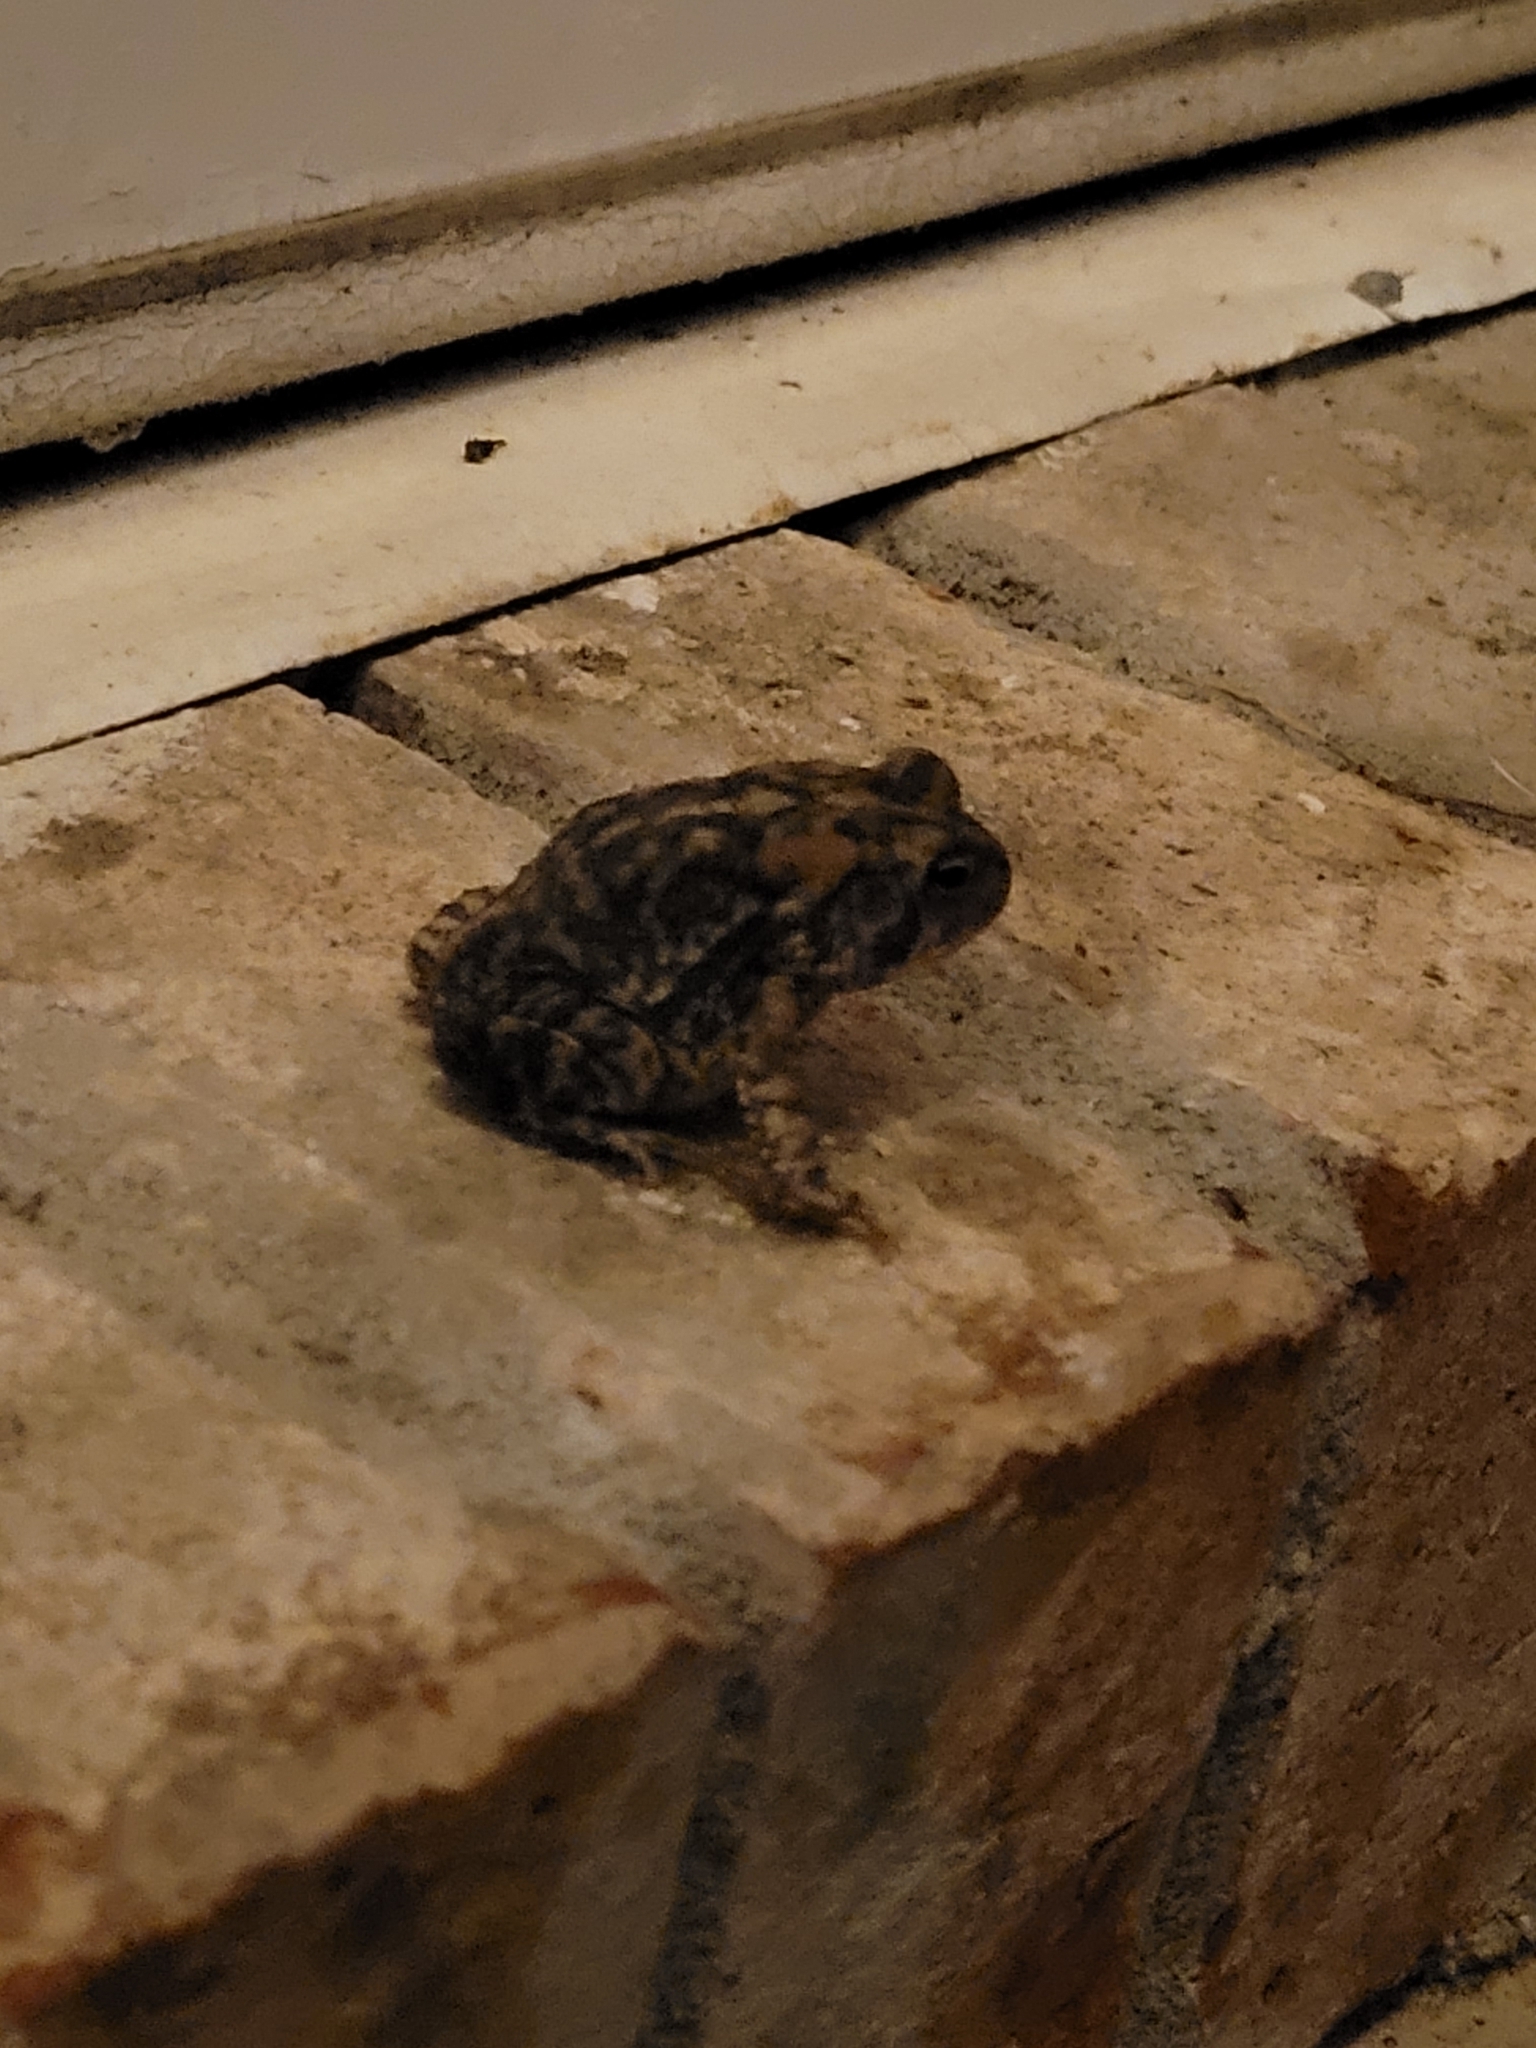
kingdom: Animalia
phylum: Chordata
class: Amphibia
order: Anura
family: Bufonidae
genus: Anaxyrus
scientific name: Anaxyrus terrestris
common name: Southern toad
